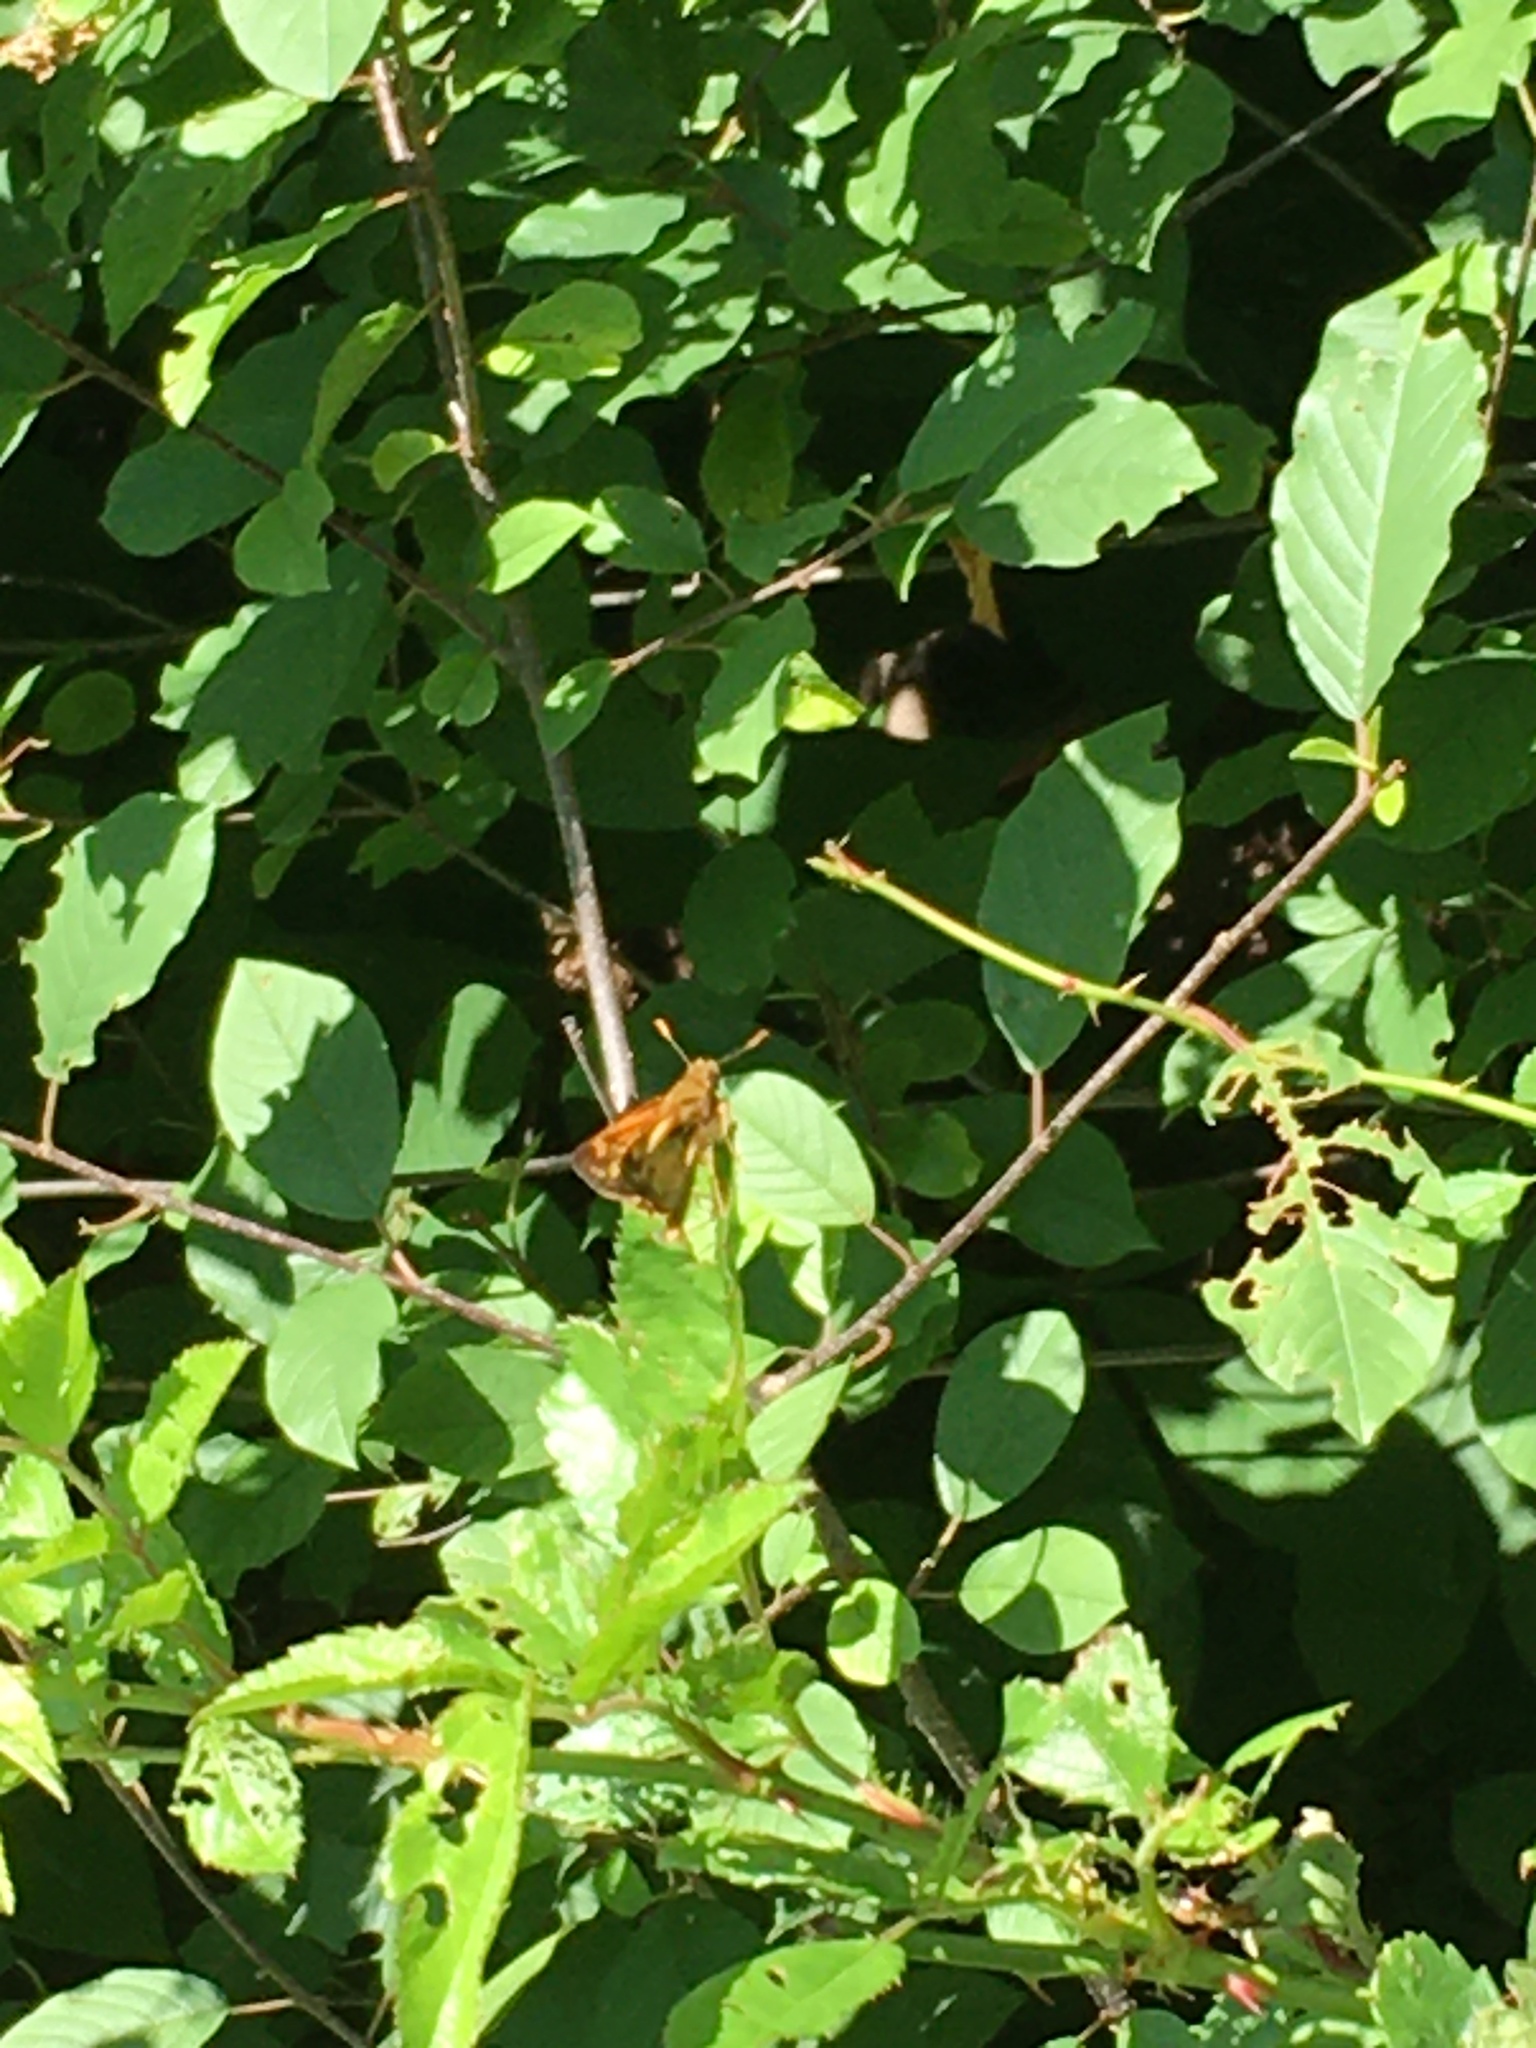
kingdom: Animalia
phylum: Arthropoda
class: Insecta
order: Lepidoptera
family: Hesperiidae
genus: Lon
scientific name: Lon zabulon
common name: Zabulon skipper
